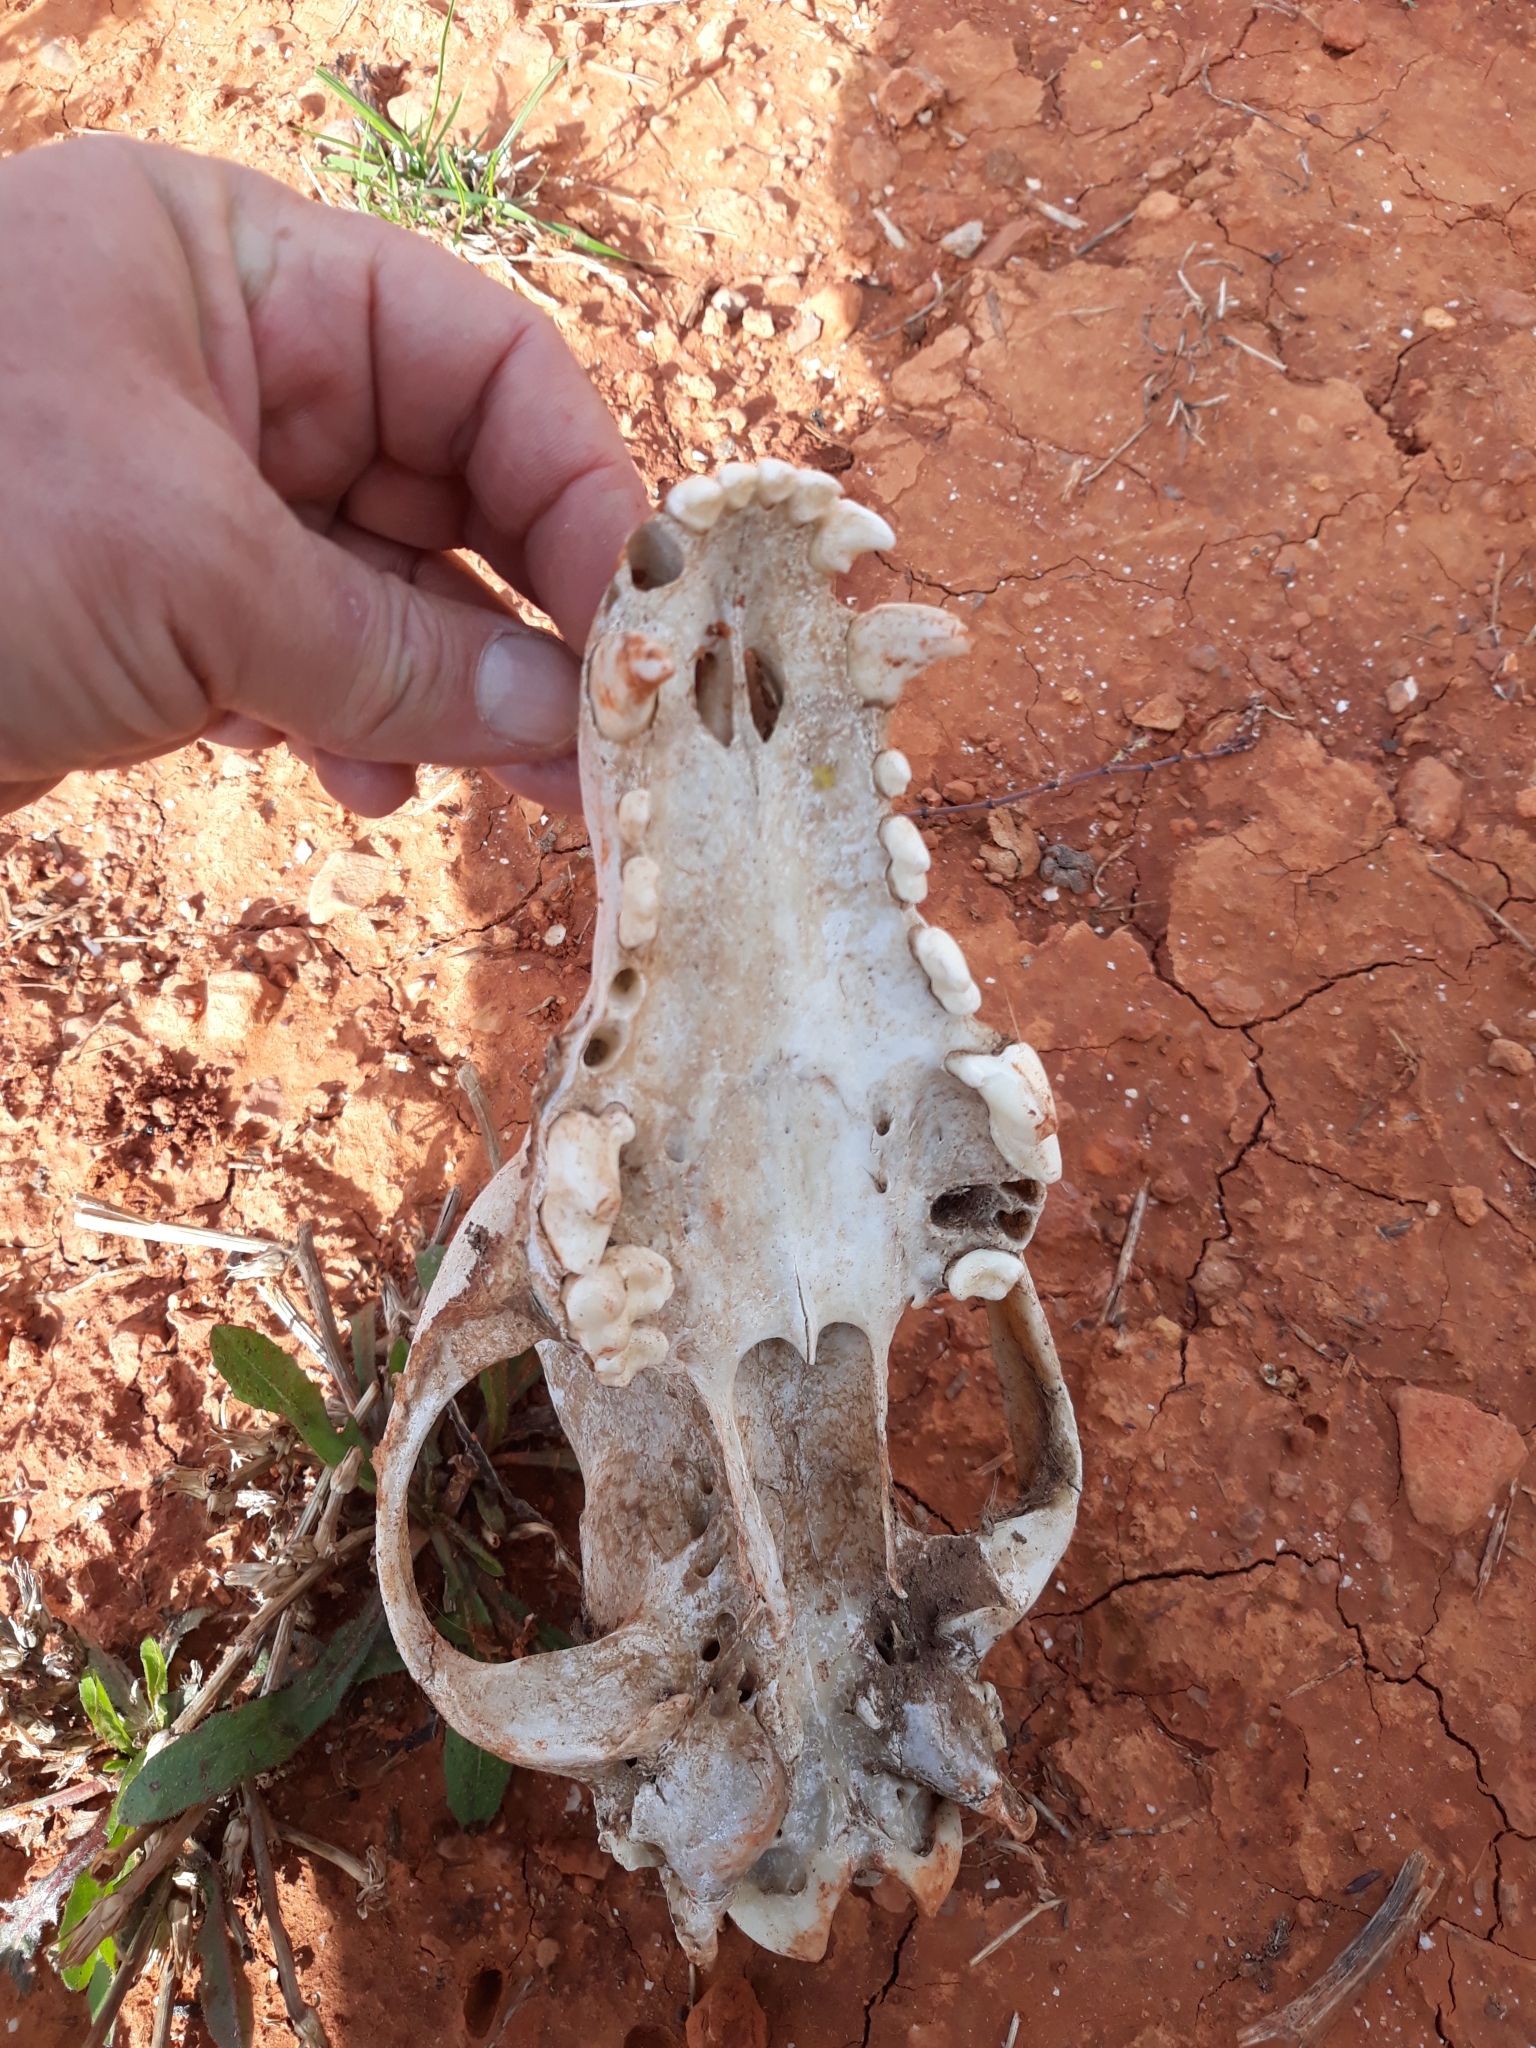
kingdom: Animalia
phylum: Chordata
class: Mammalia
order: Carnivora
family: Canidae
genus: Canis
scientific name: Canis lupus
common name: Gray wolf
